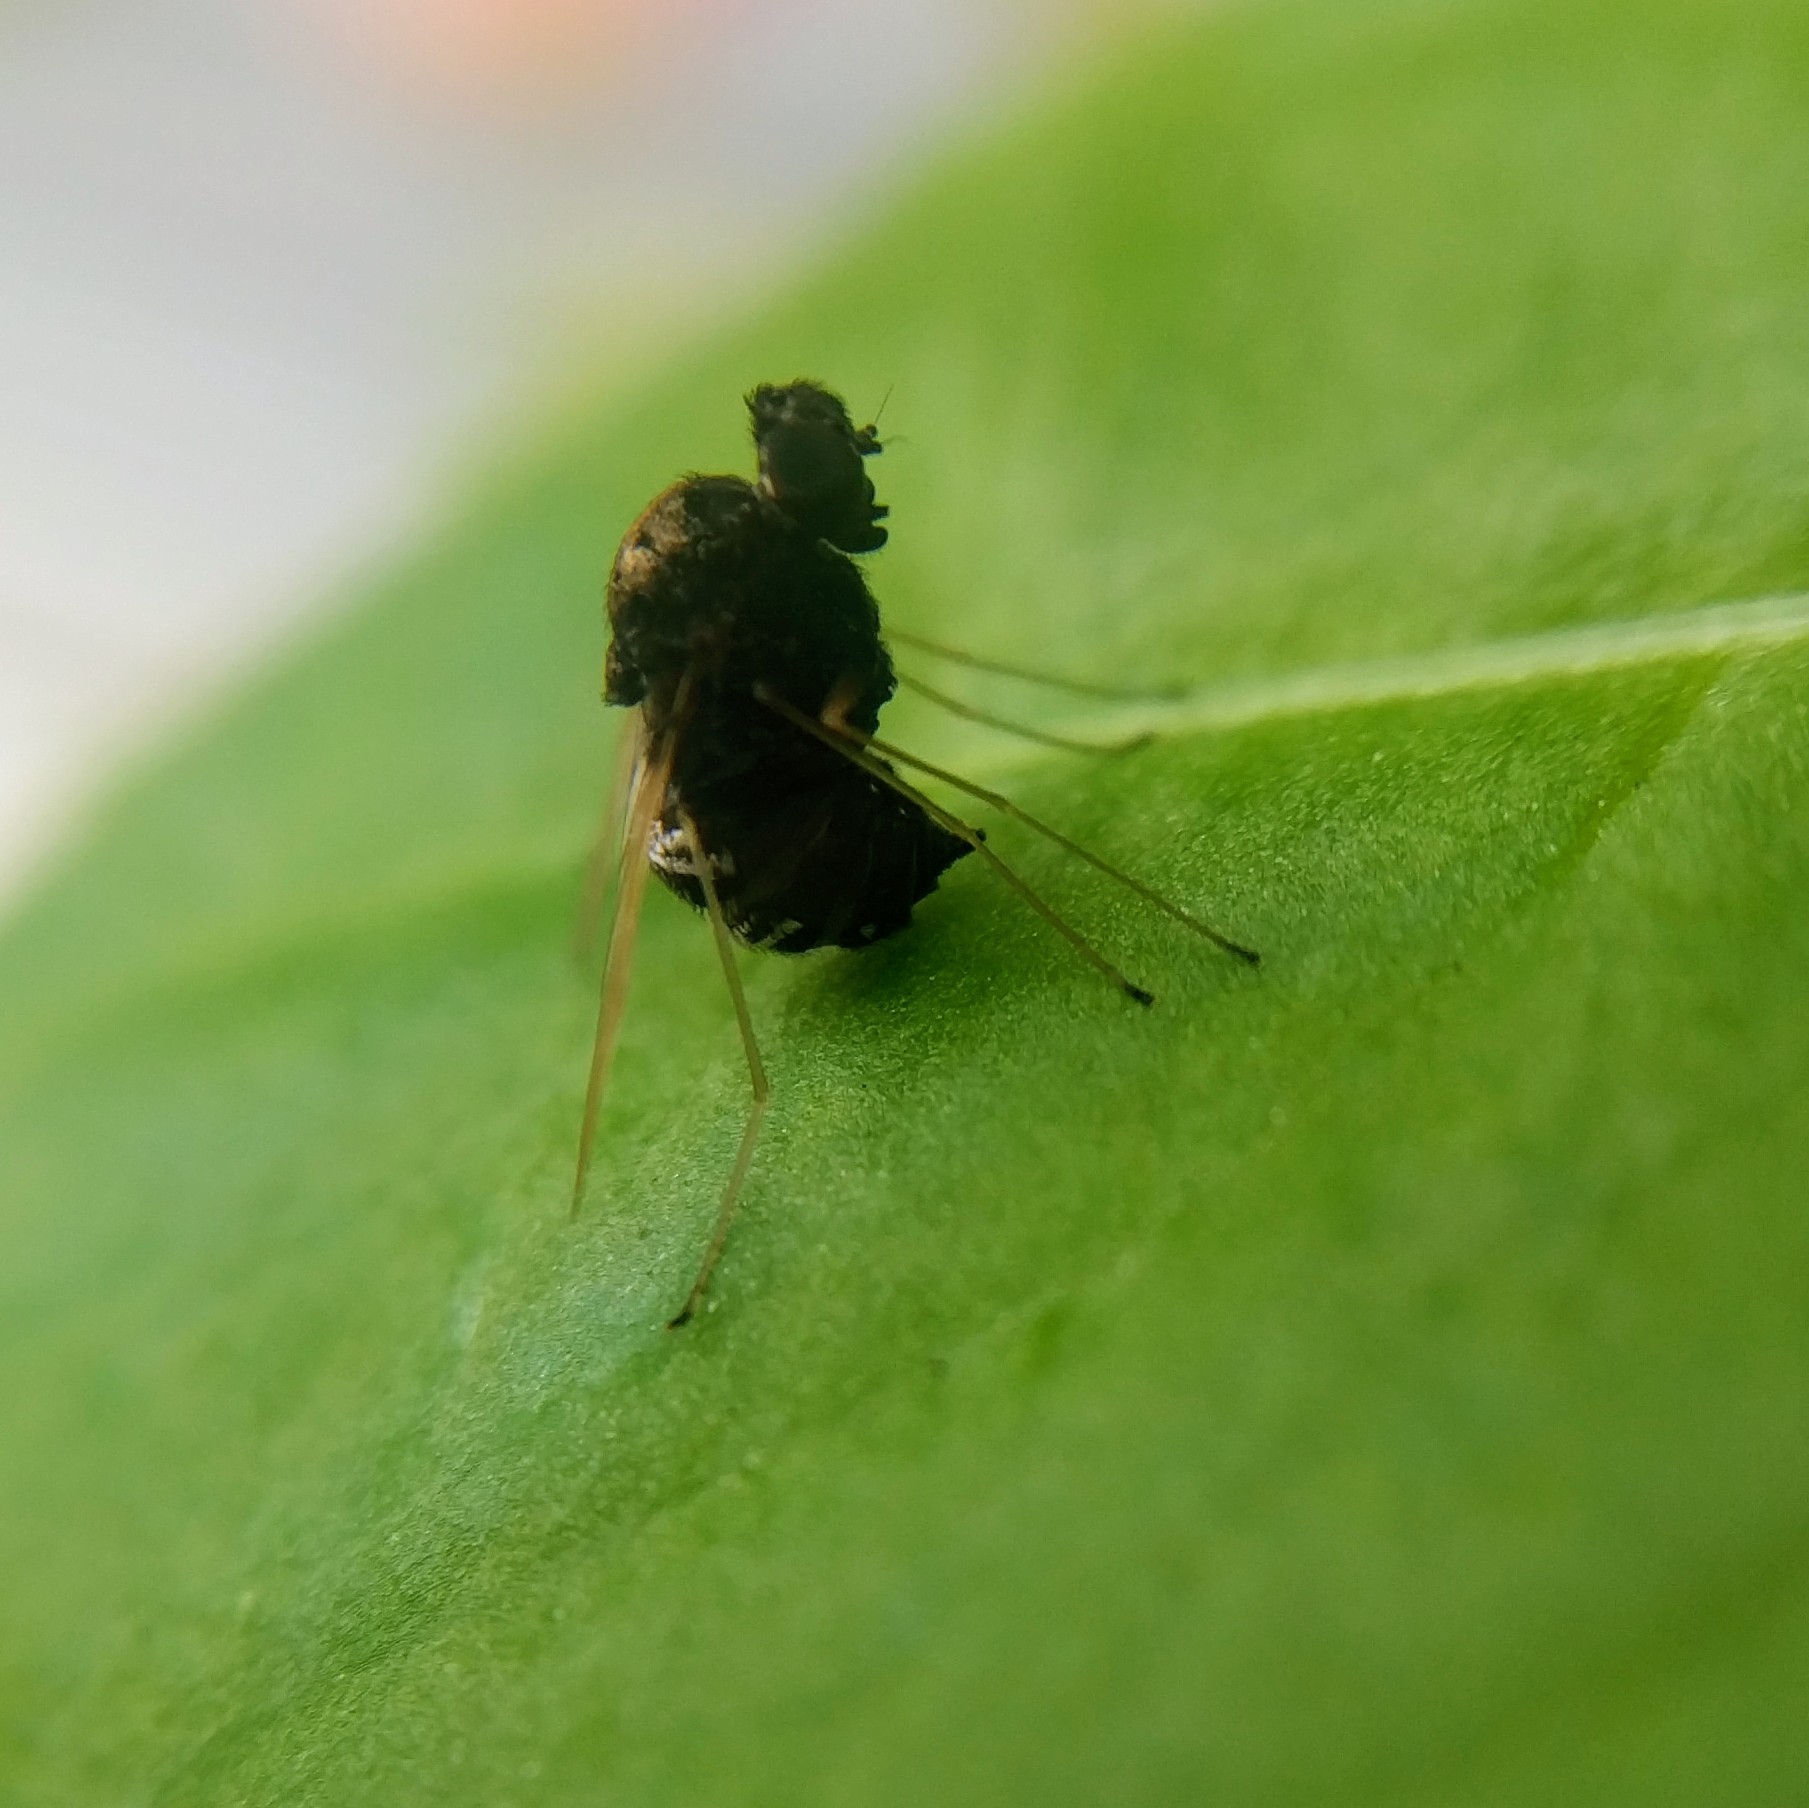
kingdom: Animalia
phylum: Arthropoda
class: Insecta
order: Diptera
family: Rhagionidae
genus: Chrysopilus
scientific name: Chrysopilus basilaris
